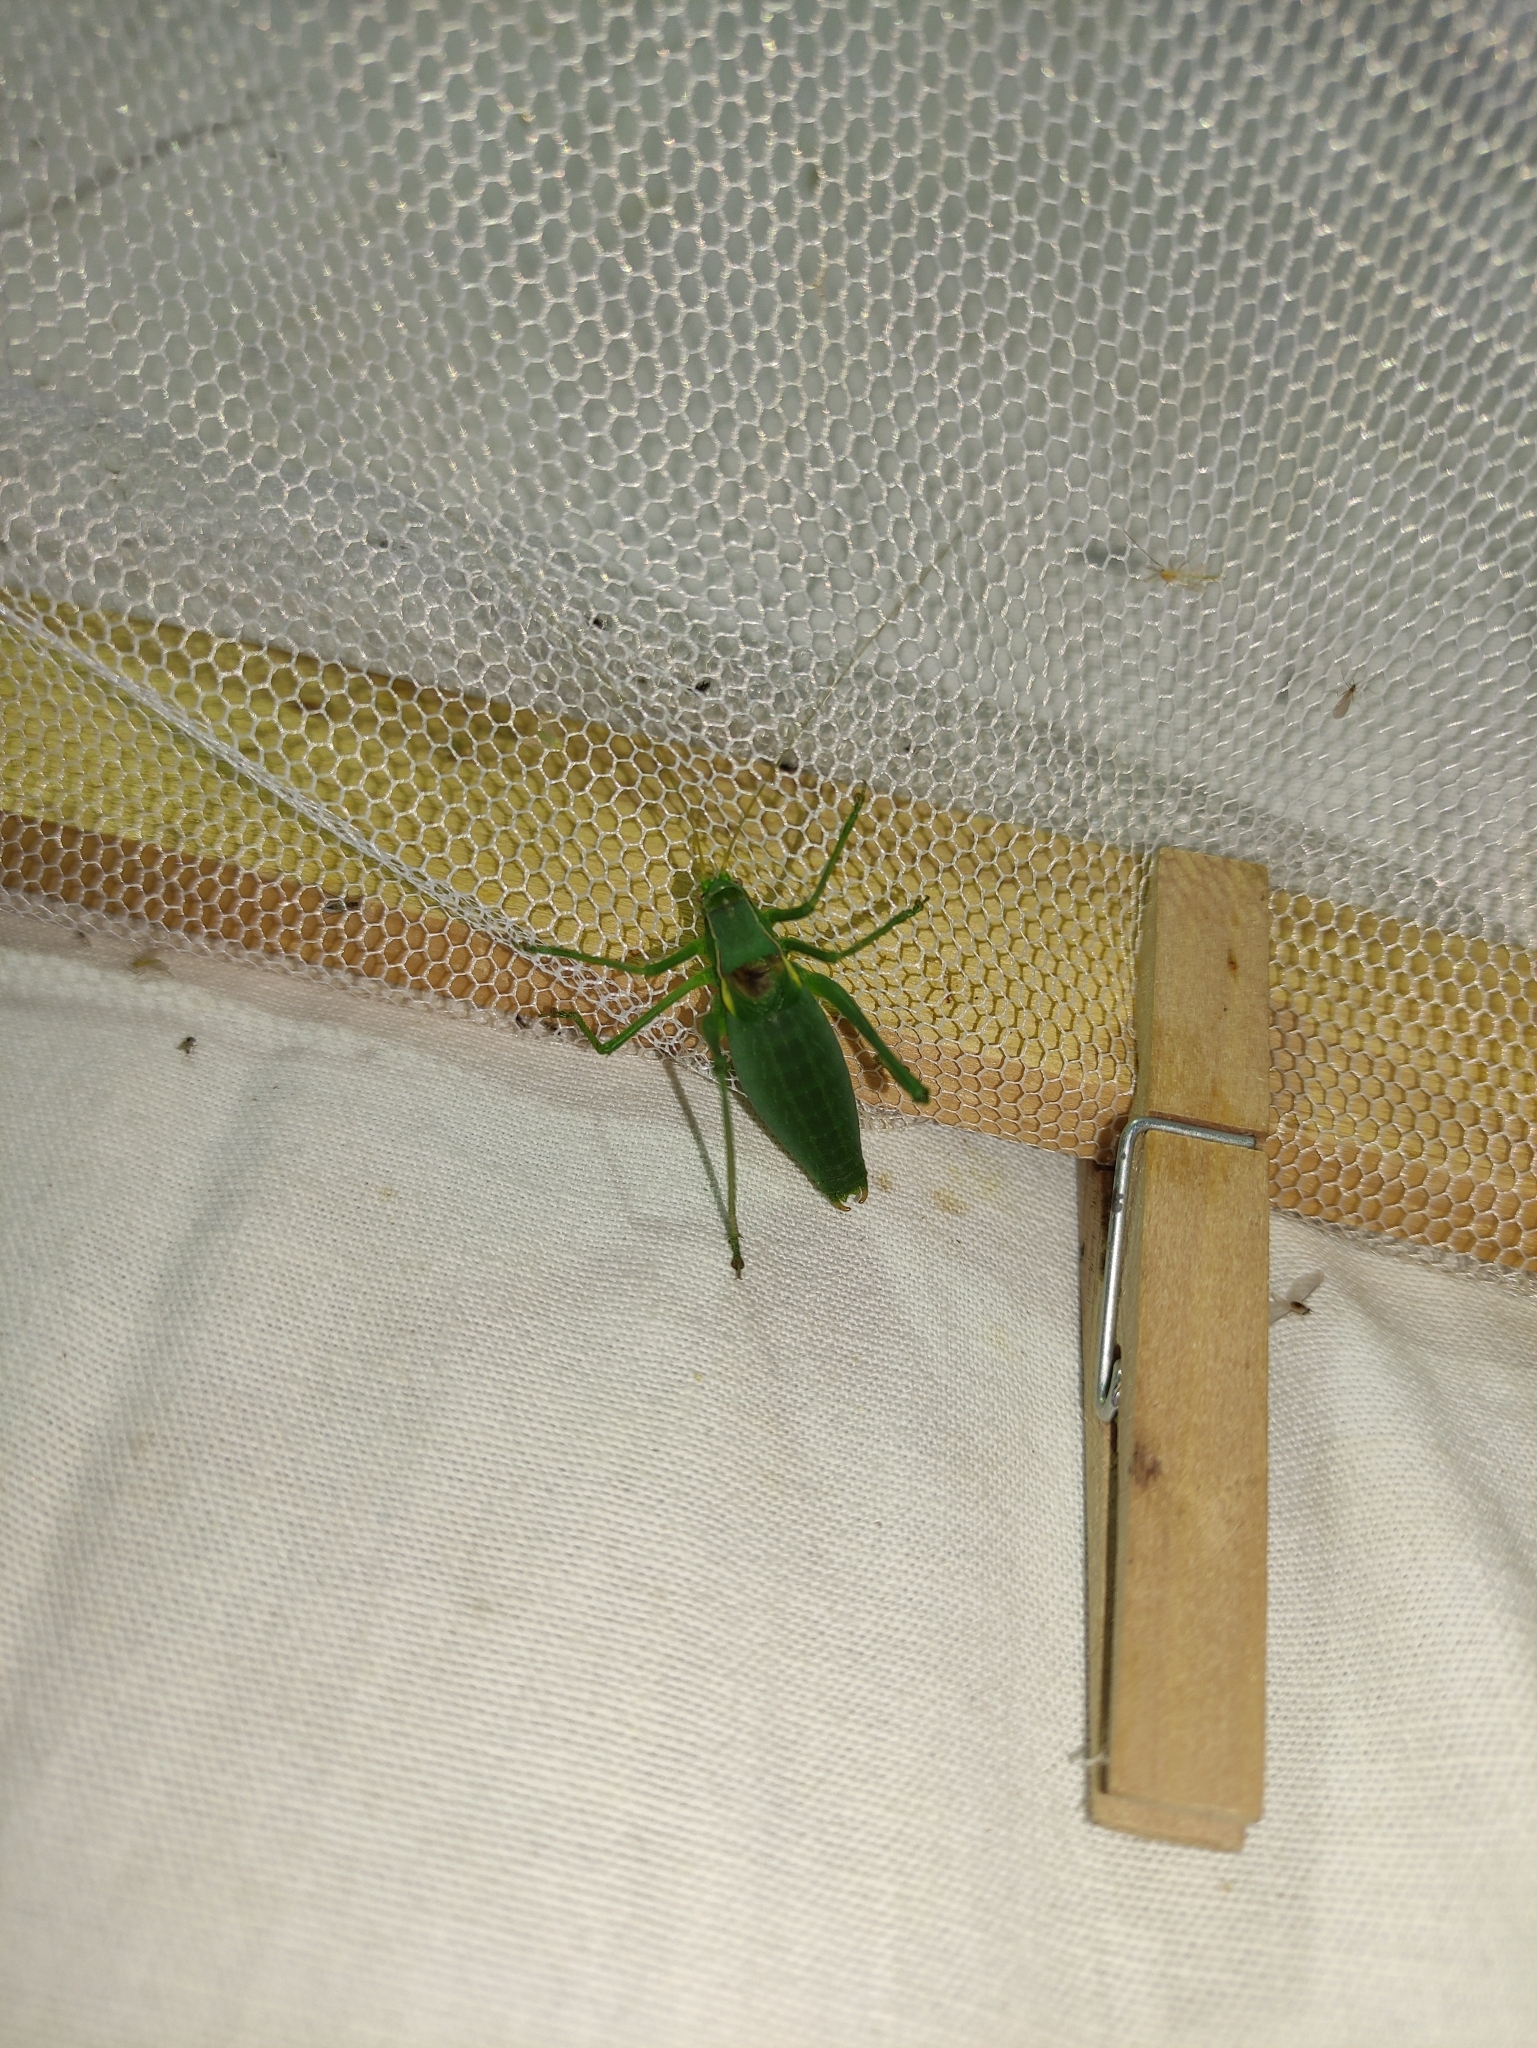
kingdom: Animalia
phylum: Arthropoda
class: Insecta
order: Orthoptera
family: Tettigoniidae
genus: Isophya
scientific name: Isophya pyrenaea
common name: Pyrenean plump bush-cricket
